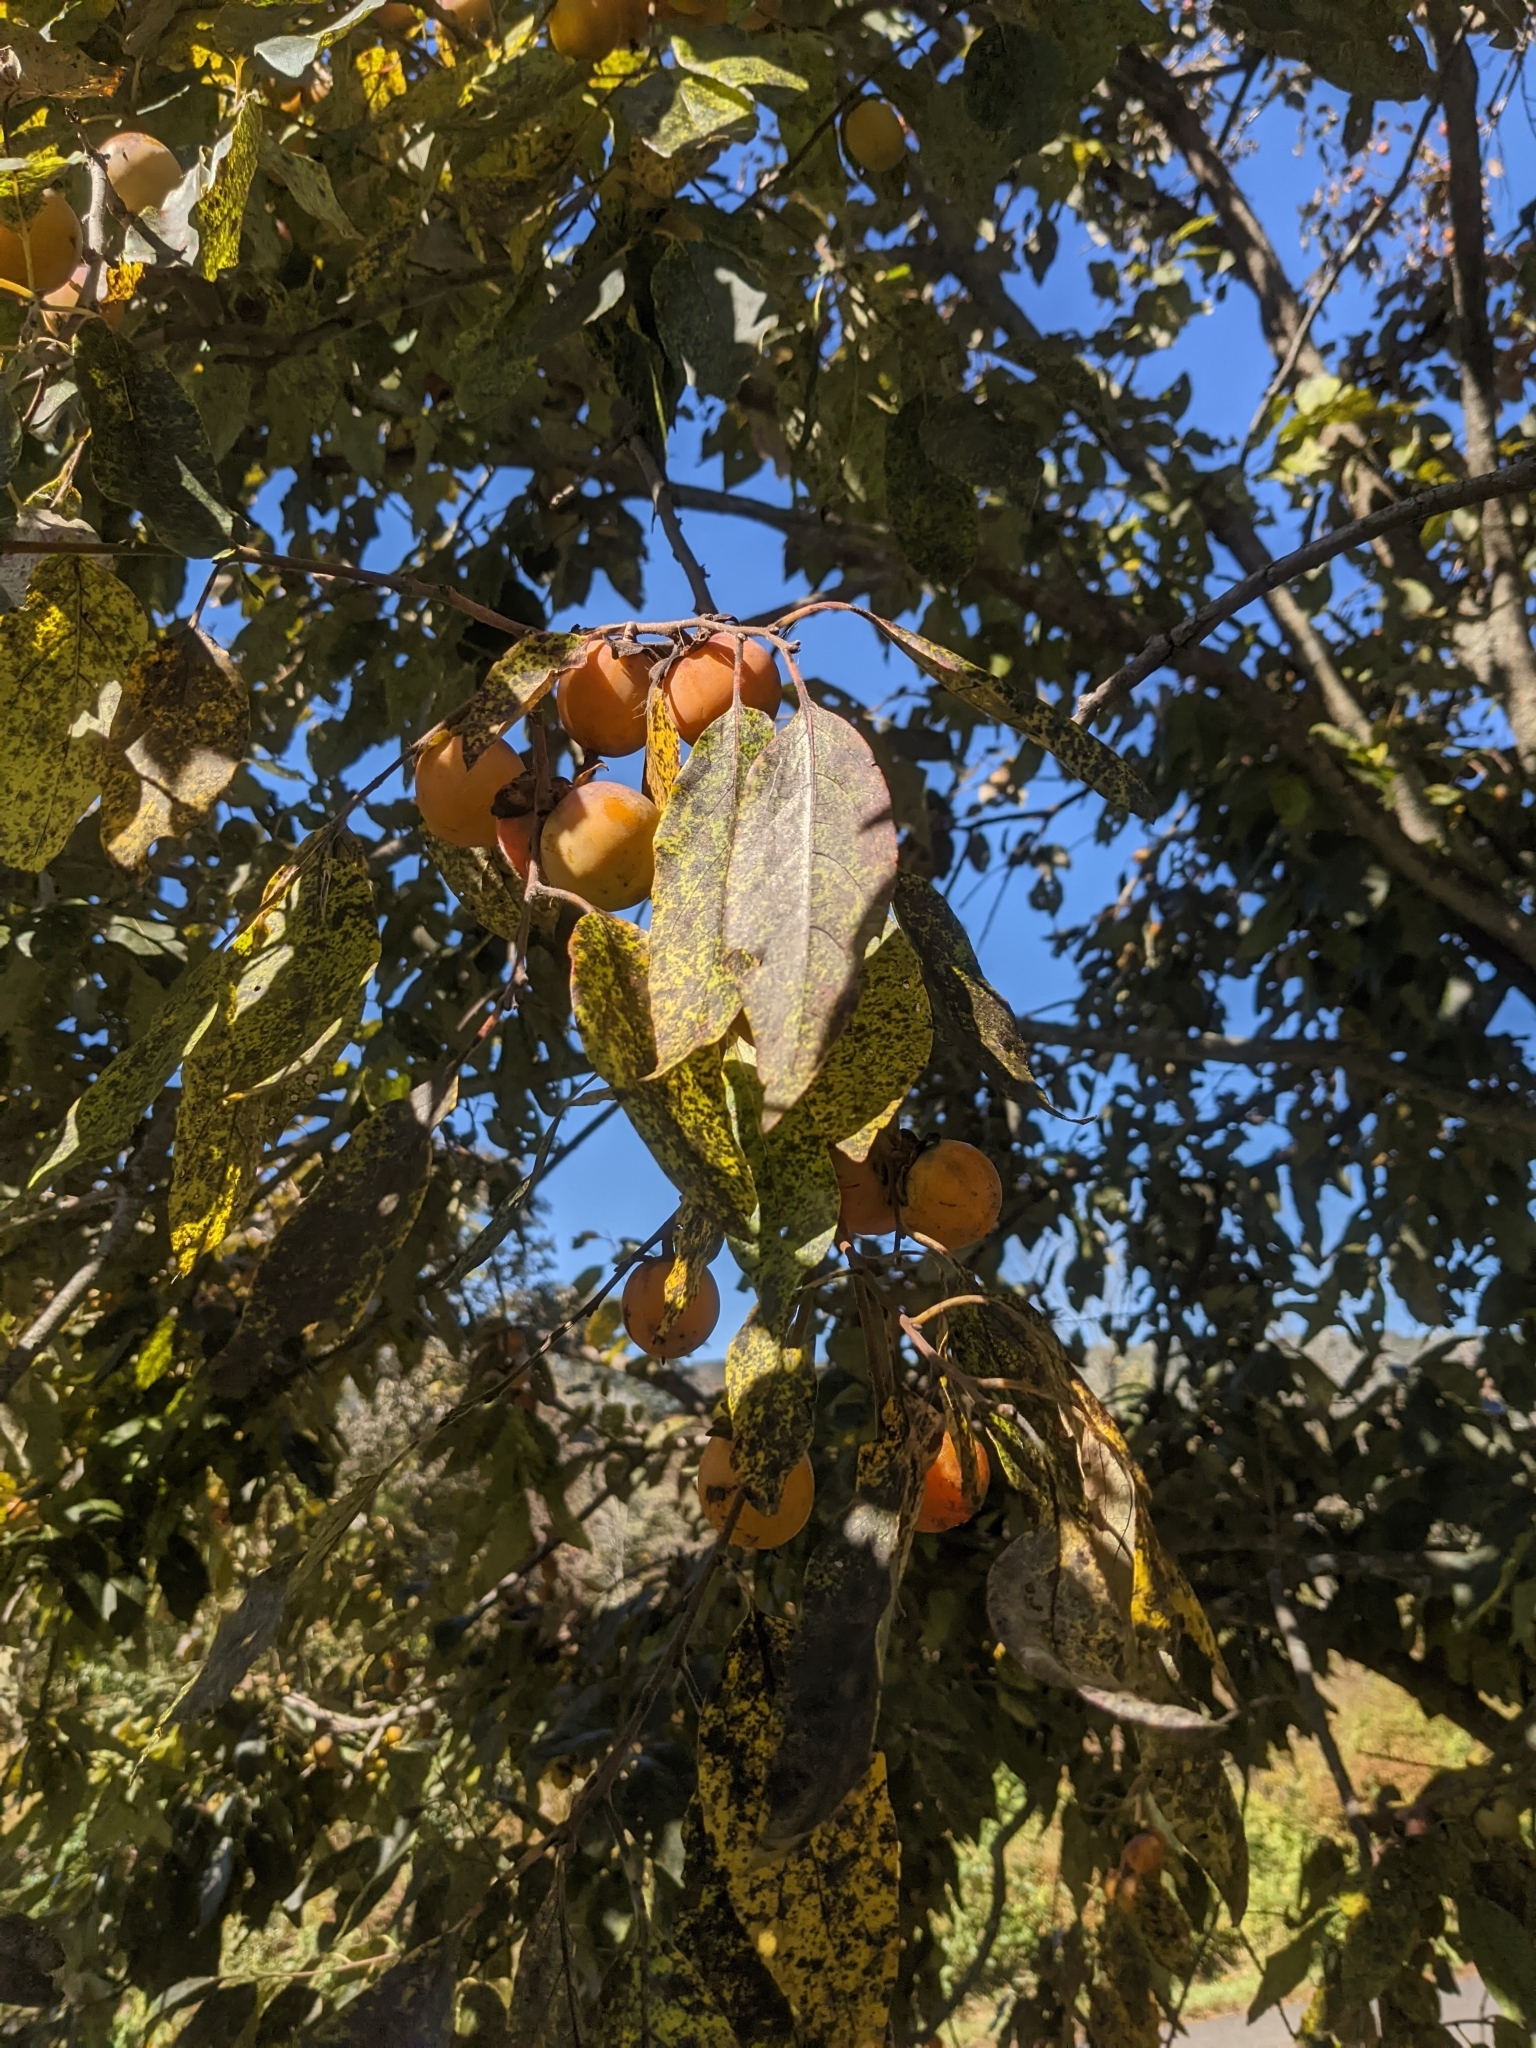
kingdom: Plantae
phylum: Tracheophyta
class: Magnoliopsida
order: Ericales
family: Ebenaceae
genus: Diospyros
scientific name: Diospyros virginiana
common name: Persimmon
